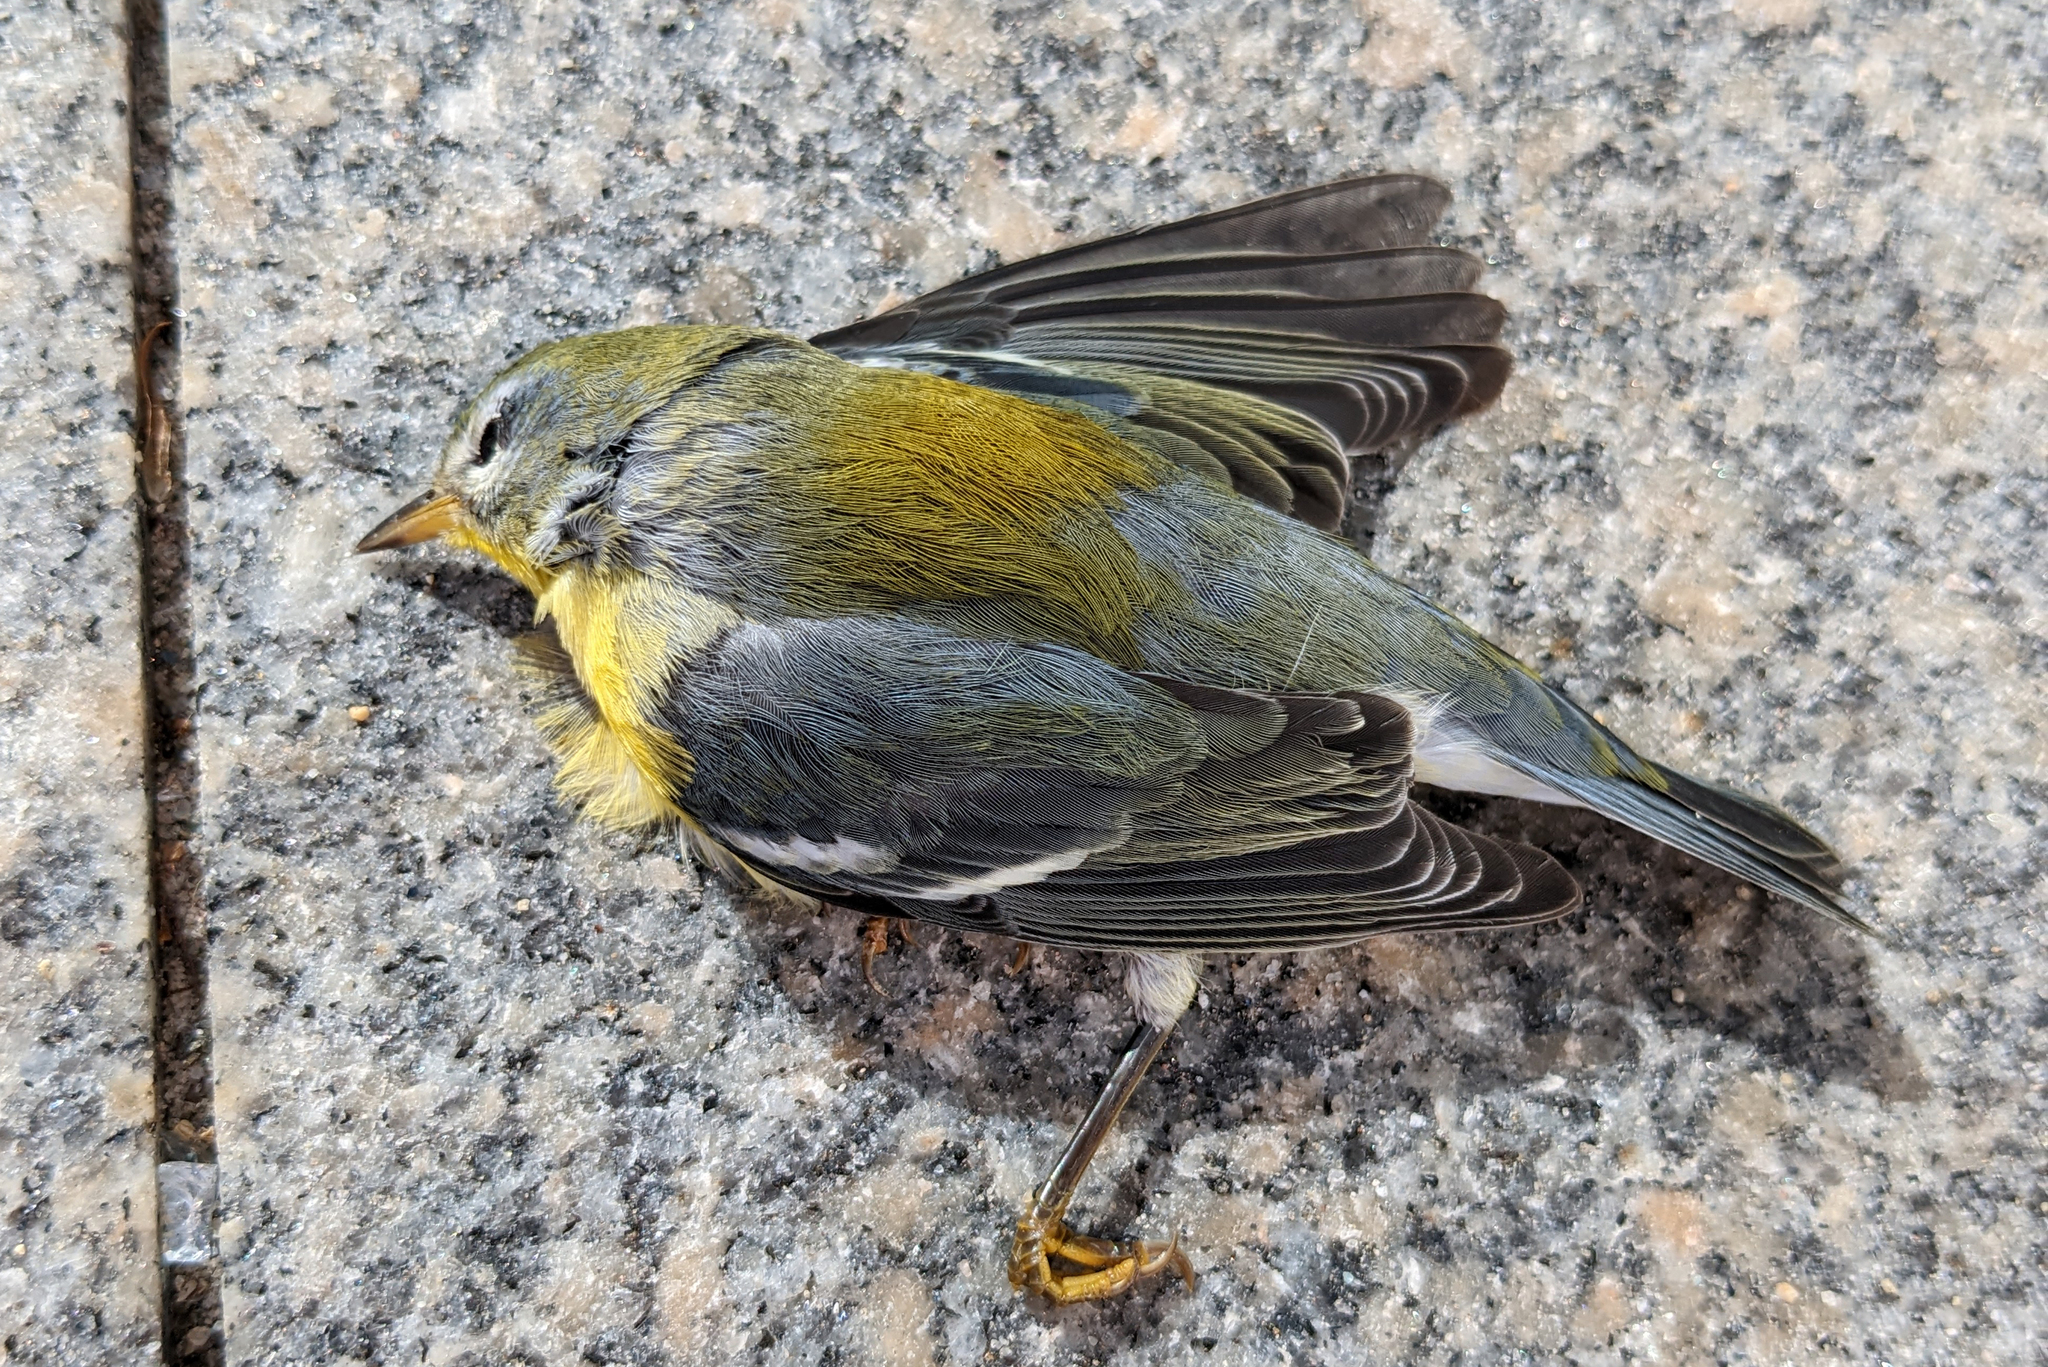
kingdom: Animalia
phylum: Chordata
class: Aves
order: Passeriformes
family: Parulidae
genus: Setophaga
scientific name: Setophaga americana
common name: Northern parula
